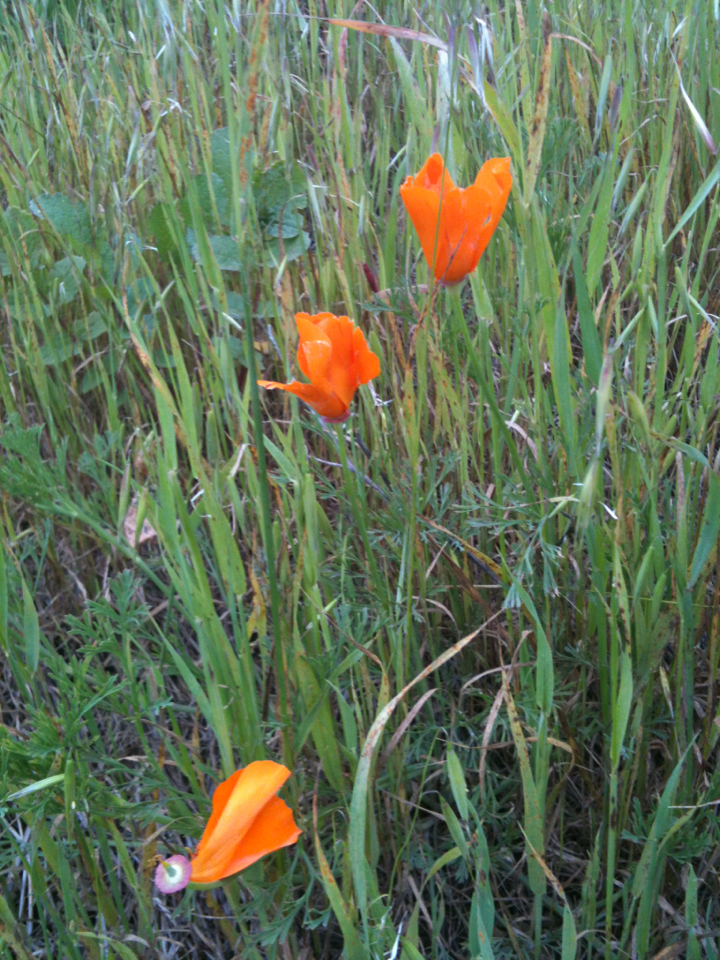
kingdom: Plantae
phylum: Tracheophyta
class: Magnoliopsida
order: Ranunculales
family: Papaveraceae
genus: Eschscholzia
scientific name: Eschscholzia californica
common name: California poppy
